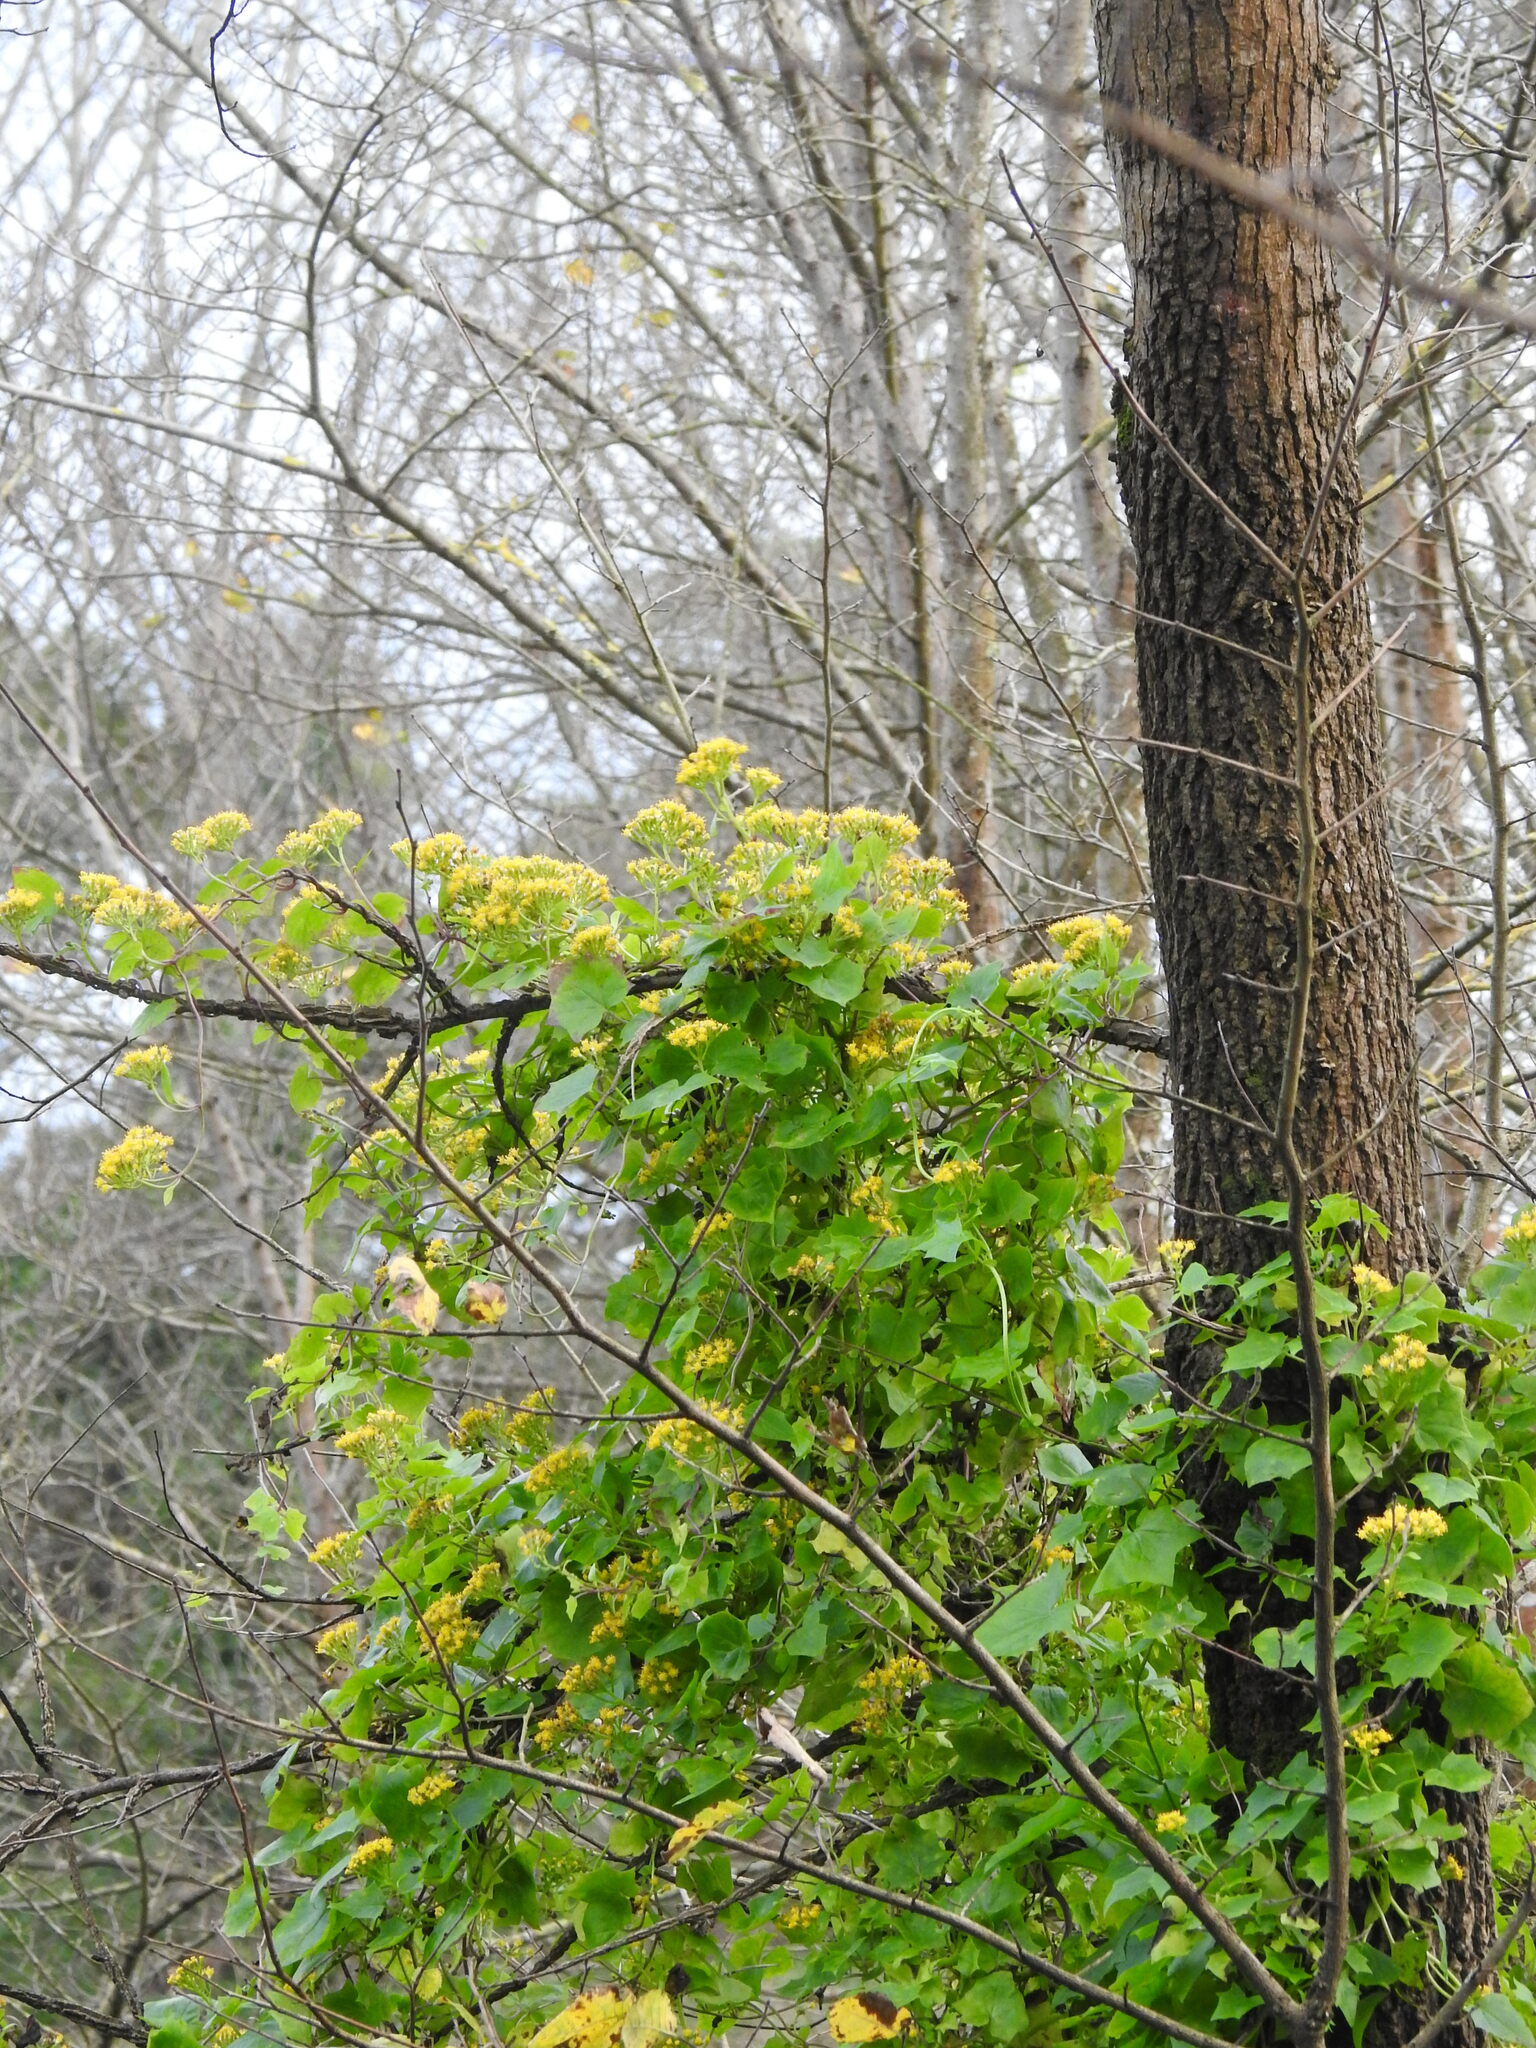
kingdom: Plantae
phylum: Tracheophyta
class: Magnoliopsida
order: Asterales
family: Asteraceae
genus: Delairea
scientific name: Delairea odorata
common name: Cape-ivy
